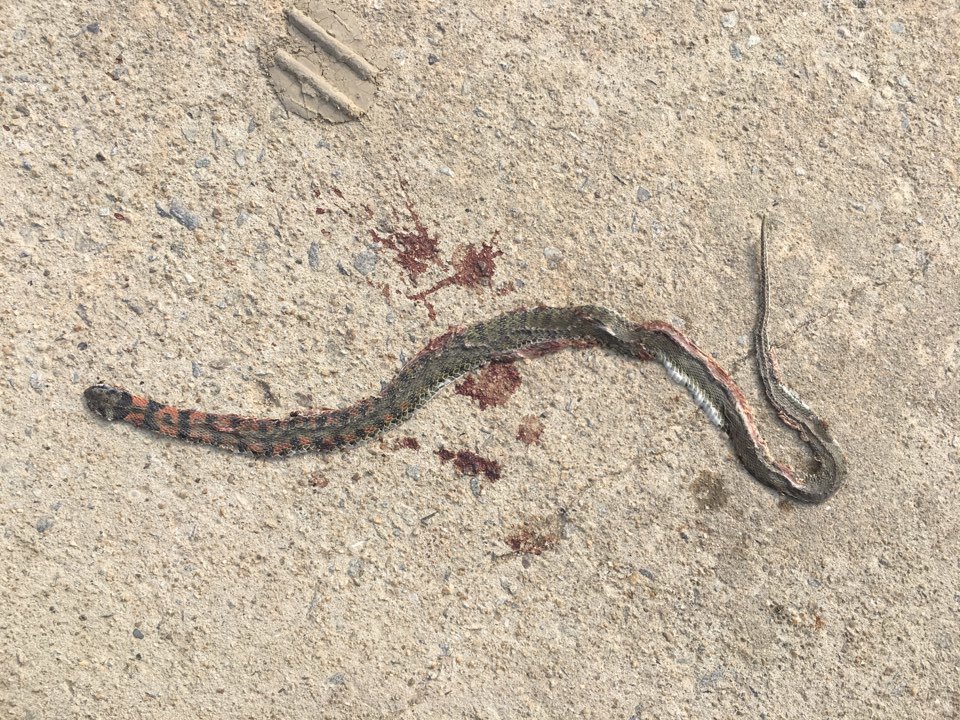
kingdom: Animalia
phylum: Chordata
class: Squamata
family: Colubridae
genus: Rhabdophis
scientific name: Rhabdophis tigrinus
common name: Tiger keelback
